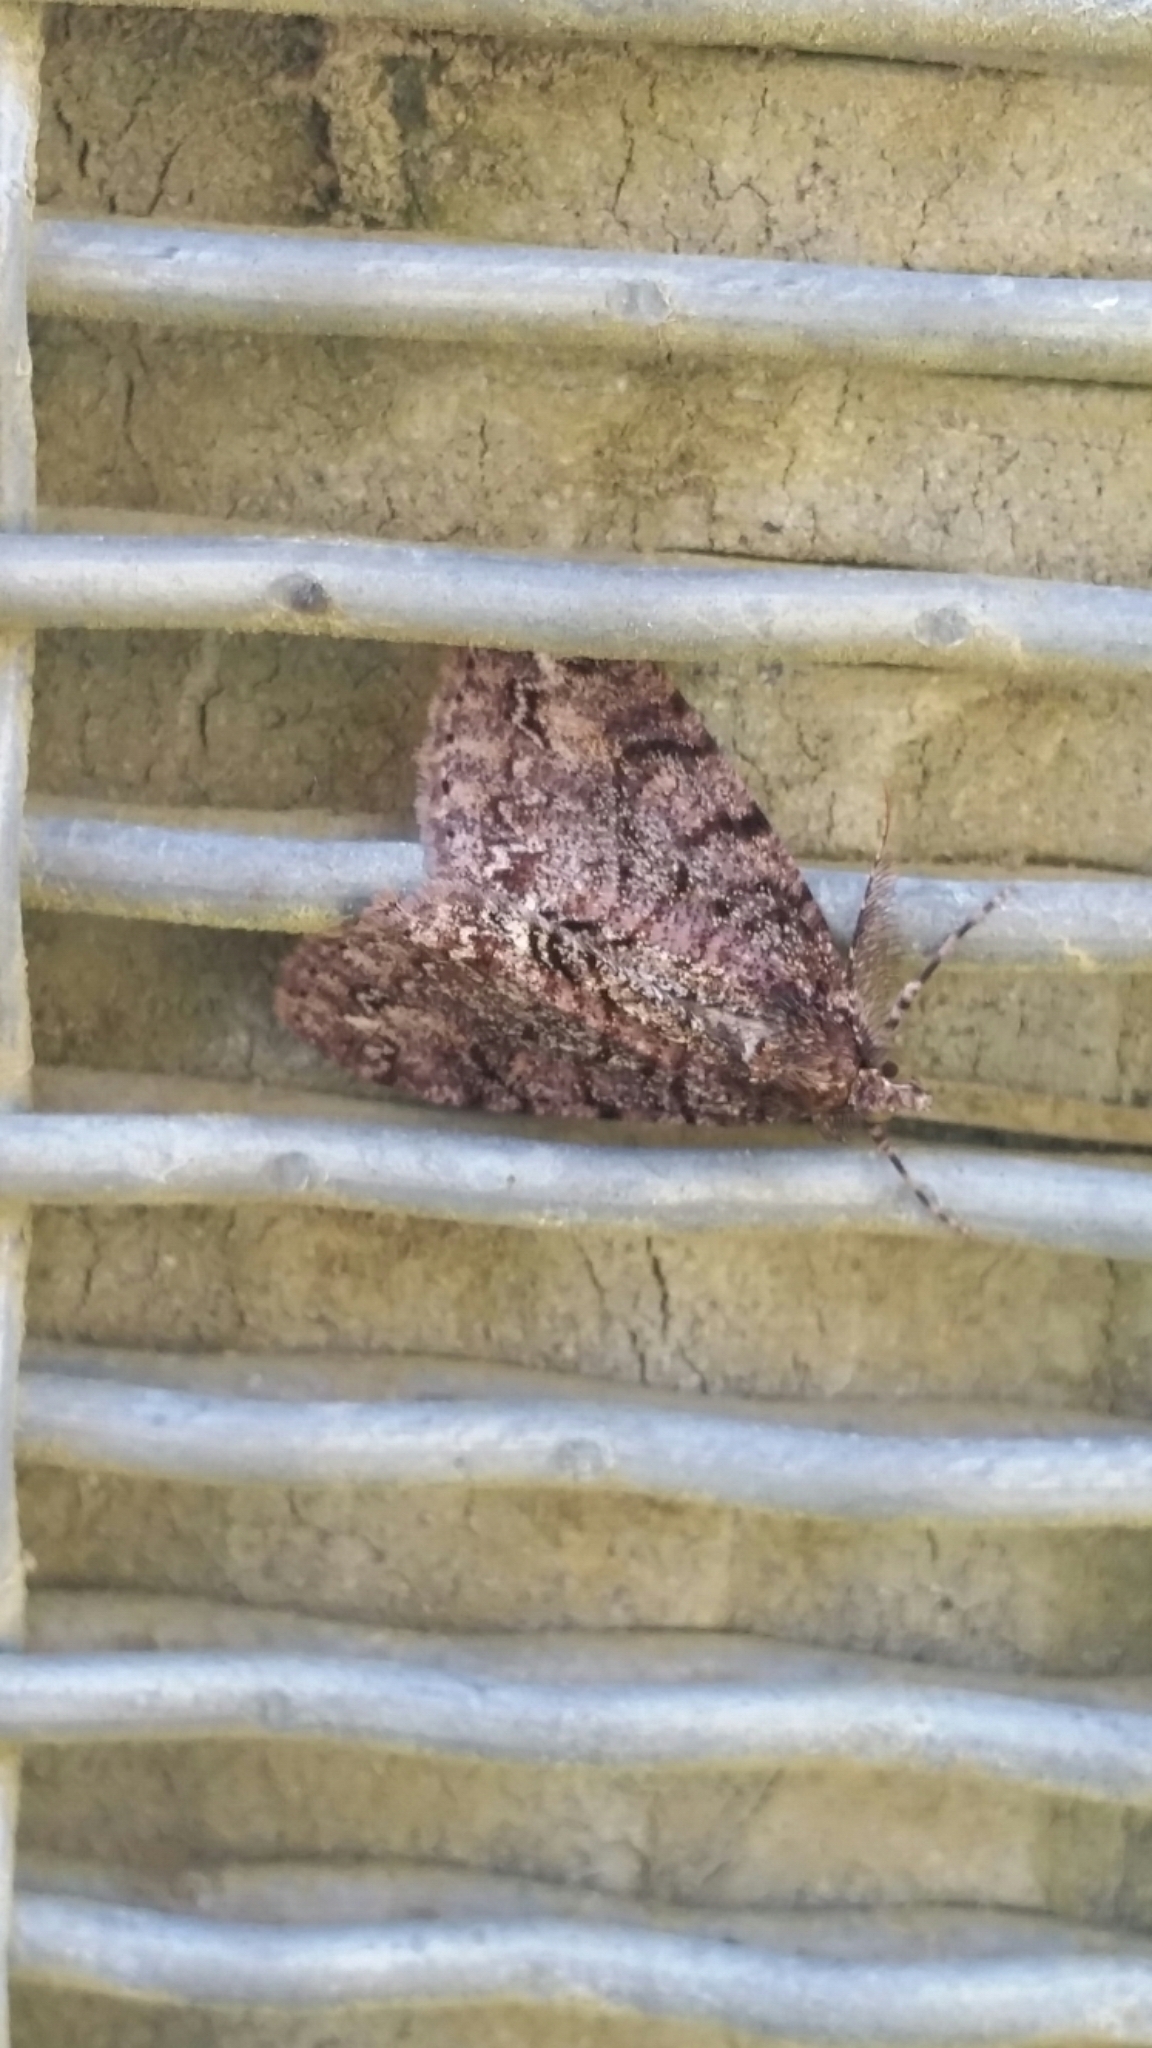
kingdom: Animalia
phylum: Arthropoda
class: Insecta
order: Lepidoptera
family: Geometridae
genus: Pseudocoremia
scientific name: Pseudocoremia suavis
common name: Common forest looper
